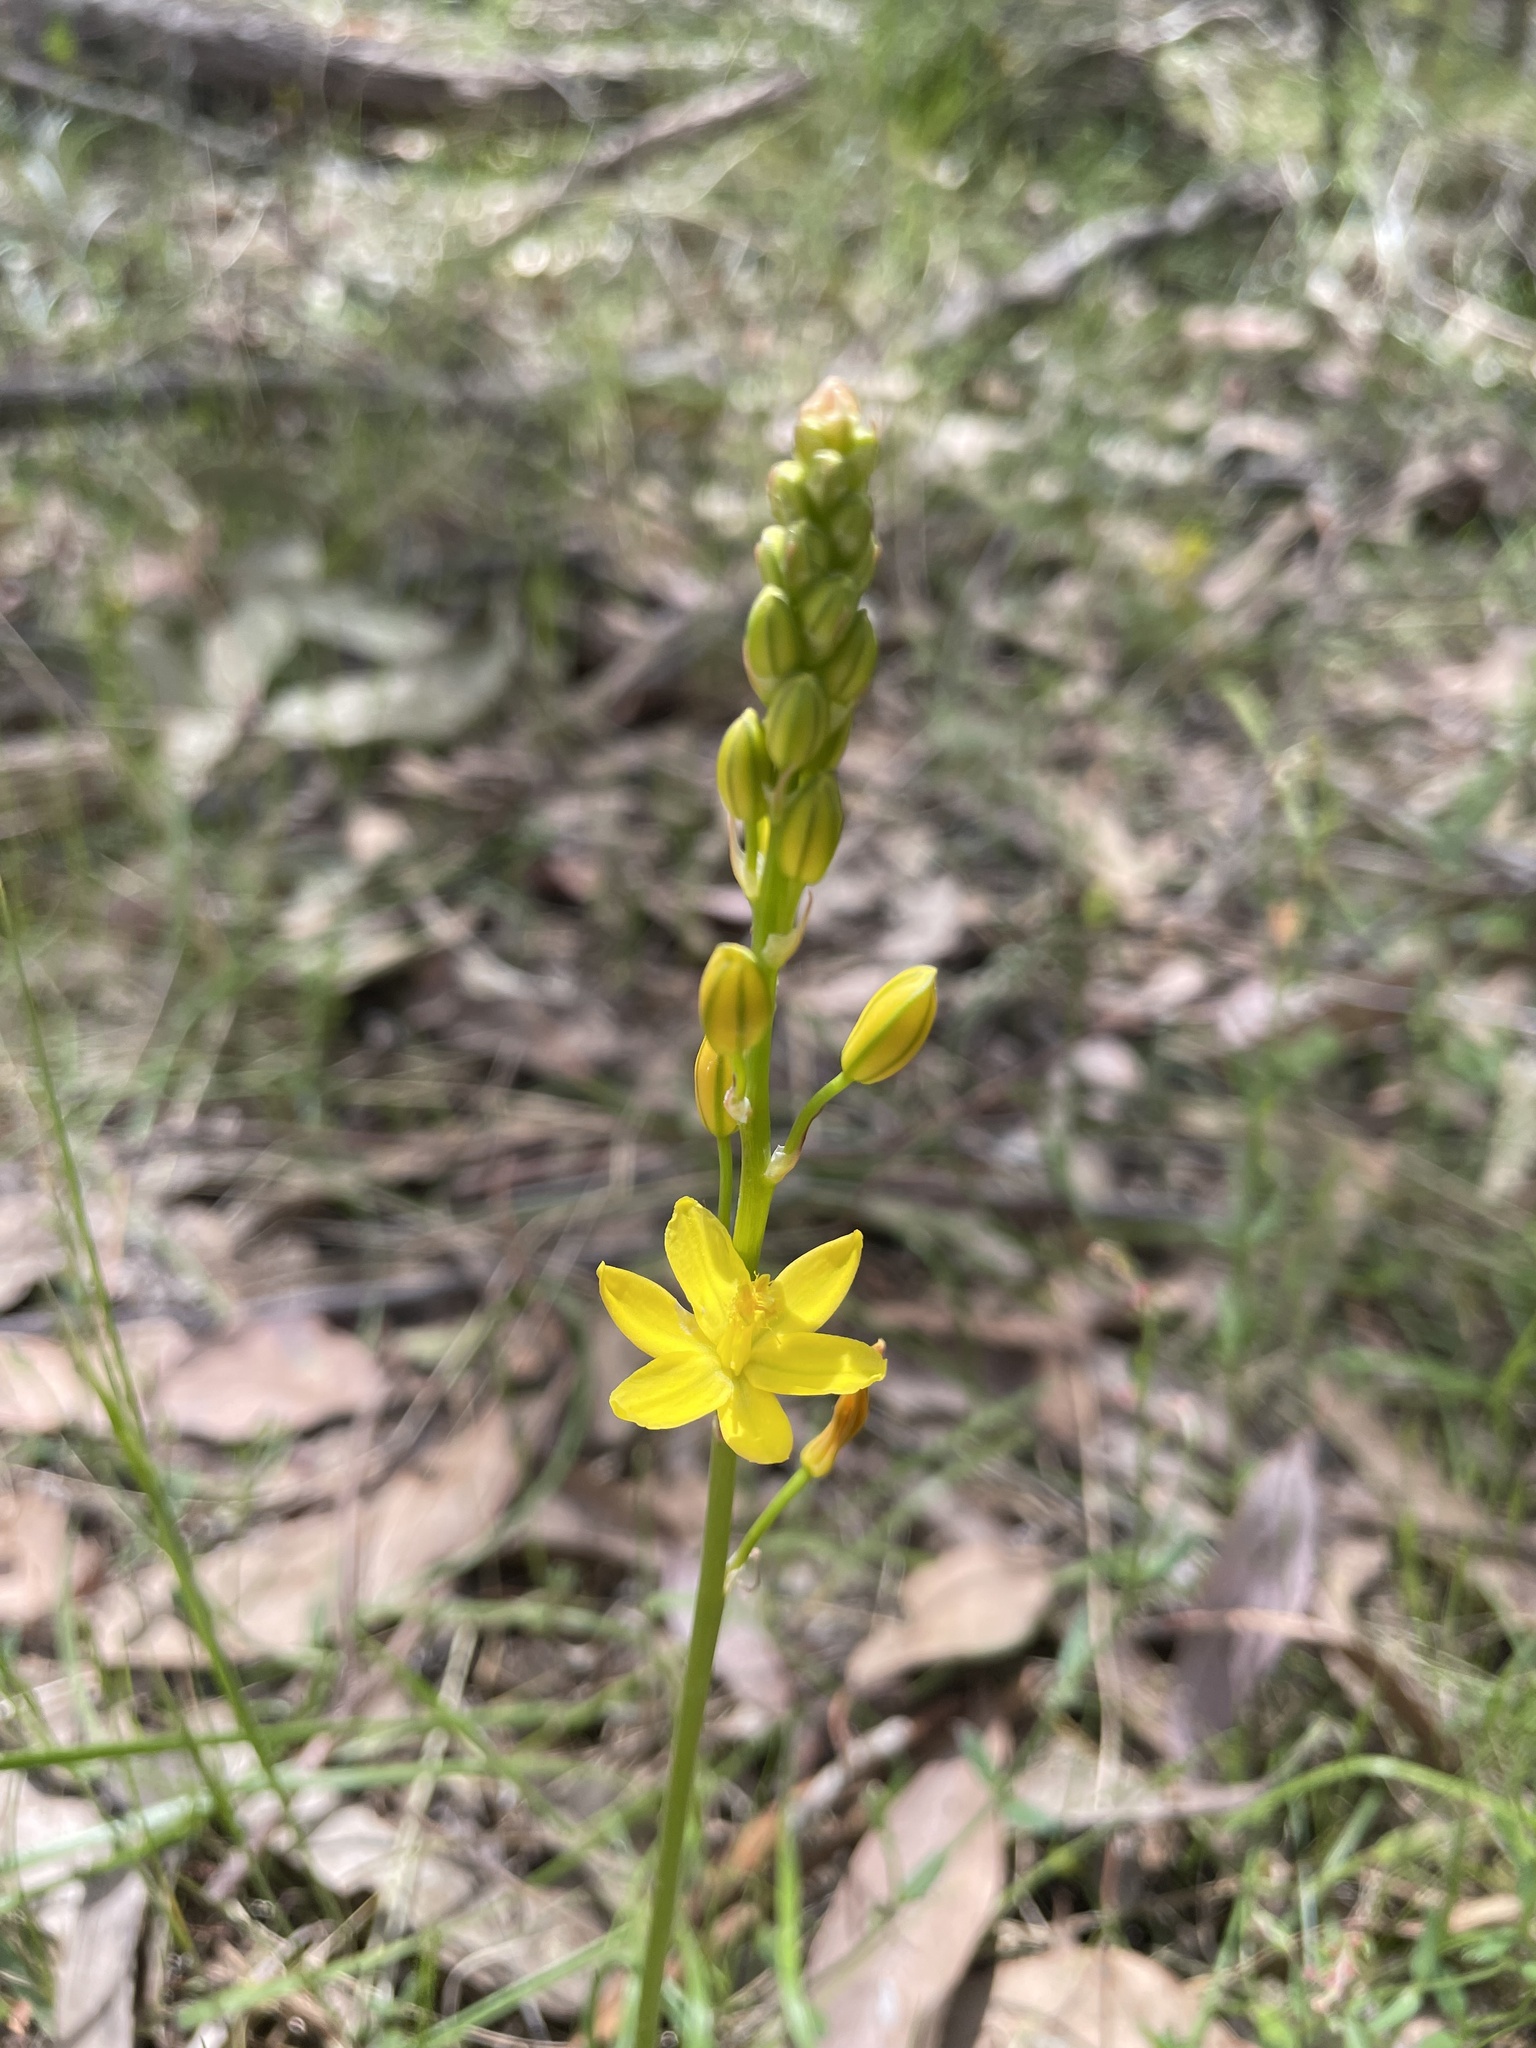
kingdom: Plantae
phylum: Tracheophyta
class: Liliopsida
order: Asparagales
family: Asphodelaceae
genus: Bulbine
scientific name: Bulbine bulbosa
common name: Golden-lily
